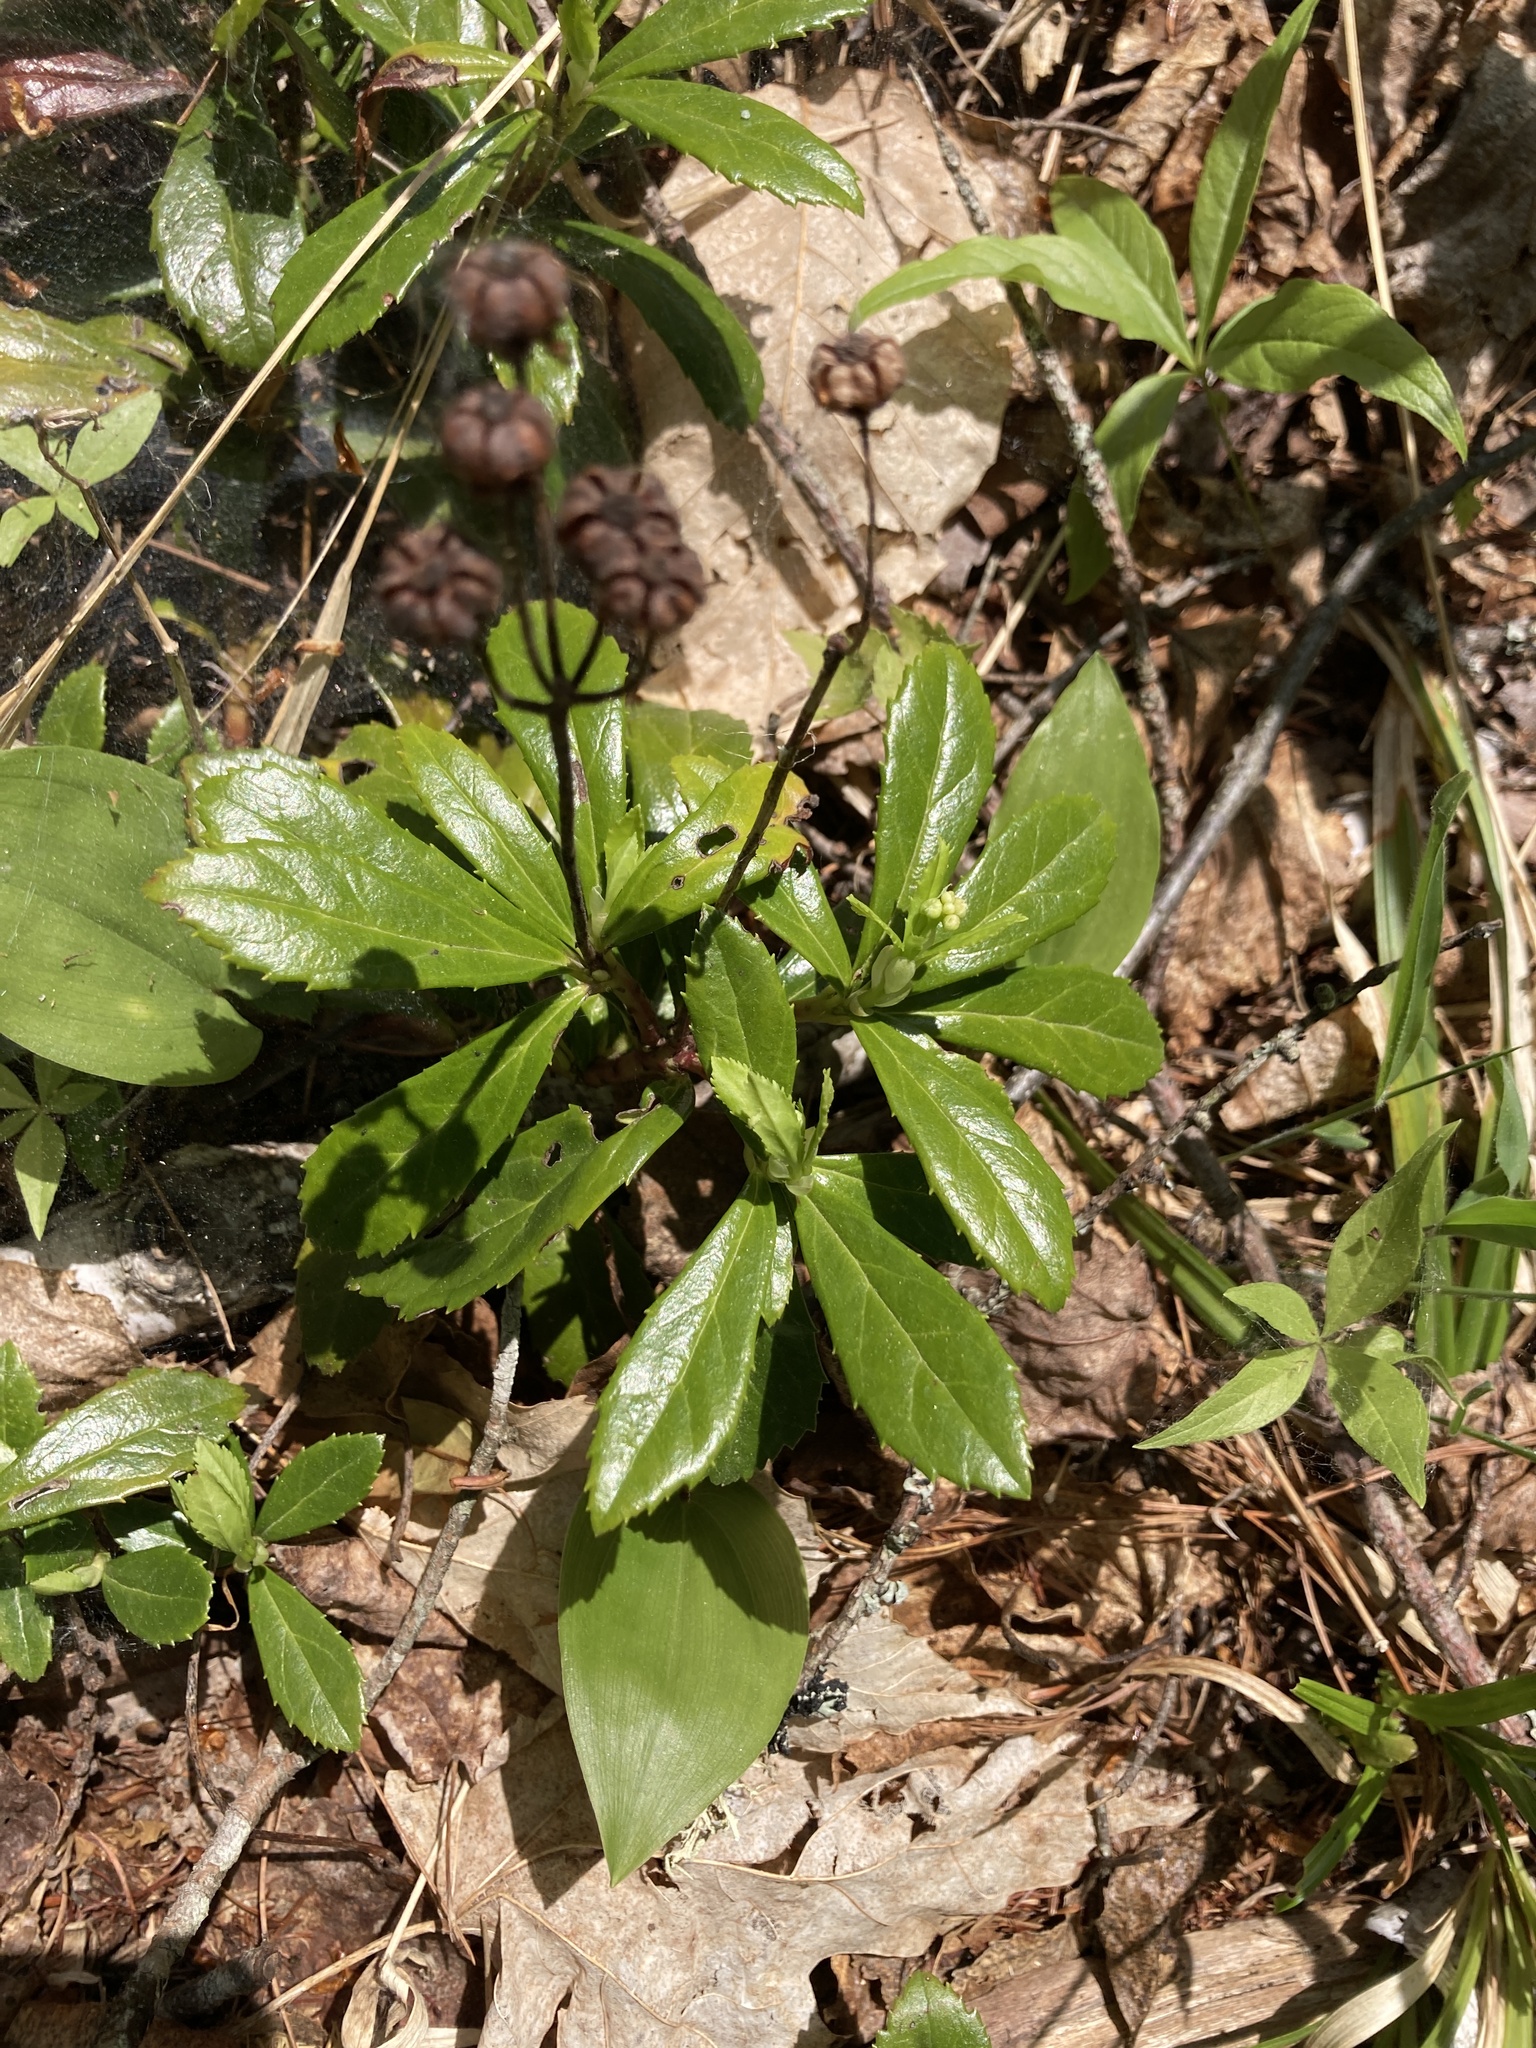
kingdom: Plantae
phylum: Tracheophyta
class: Magnoliopsida
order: Ericales
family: Ericaceae
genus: Chimaphila
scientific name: Chimaphila umbellata
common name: Pipsissewa
